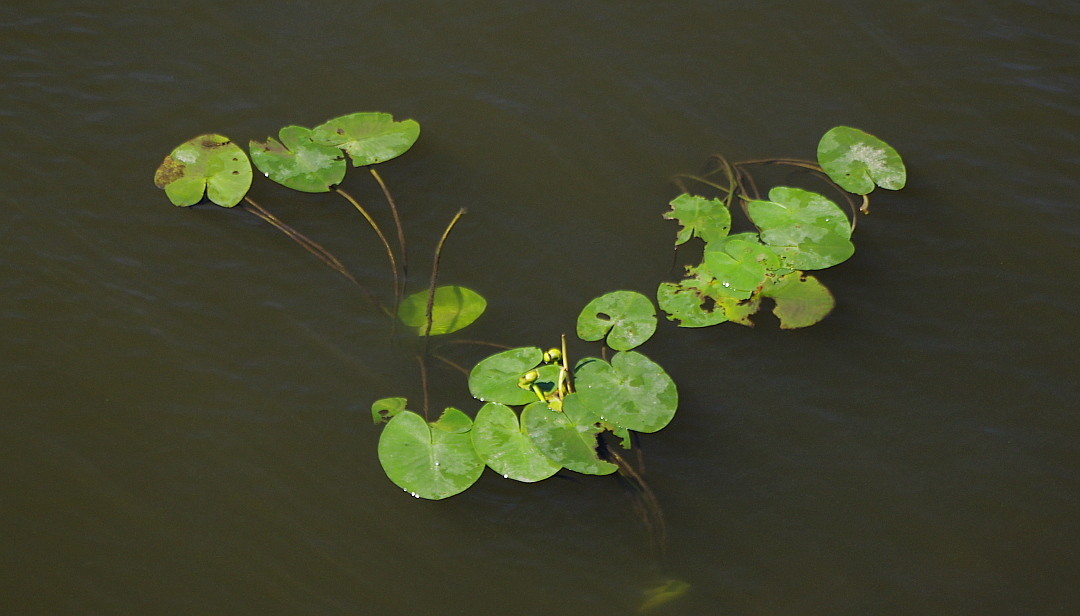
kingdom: Plantae
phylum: Tracheophyta
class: Magnoliopsida
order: Nymphaeales
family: Nymphaeaceae
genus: Nuphar
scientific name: Nuphar lutea
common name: Yellow water-lily
